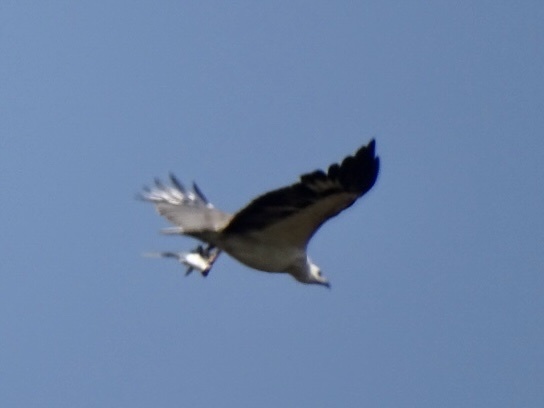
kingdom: Animalia
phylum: Chordata
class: Aves
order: Accipitriformes
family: Accipitridae
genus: Haliaeetus
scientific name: Haliaeetus leucogaster
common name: White-bellied sea eagle
